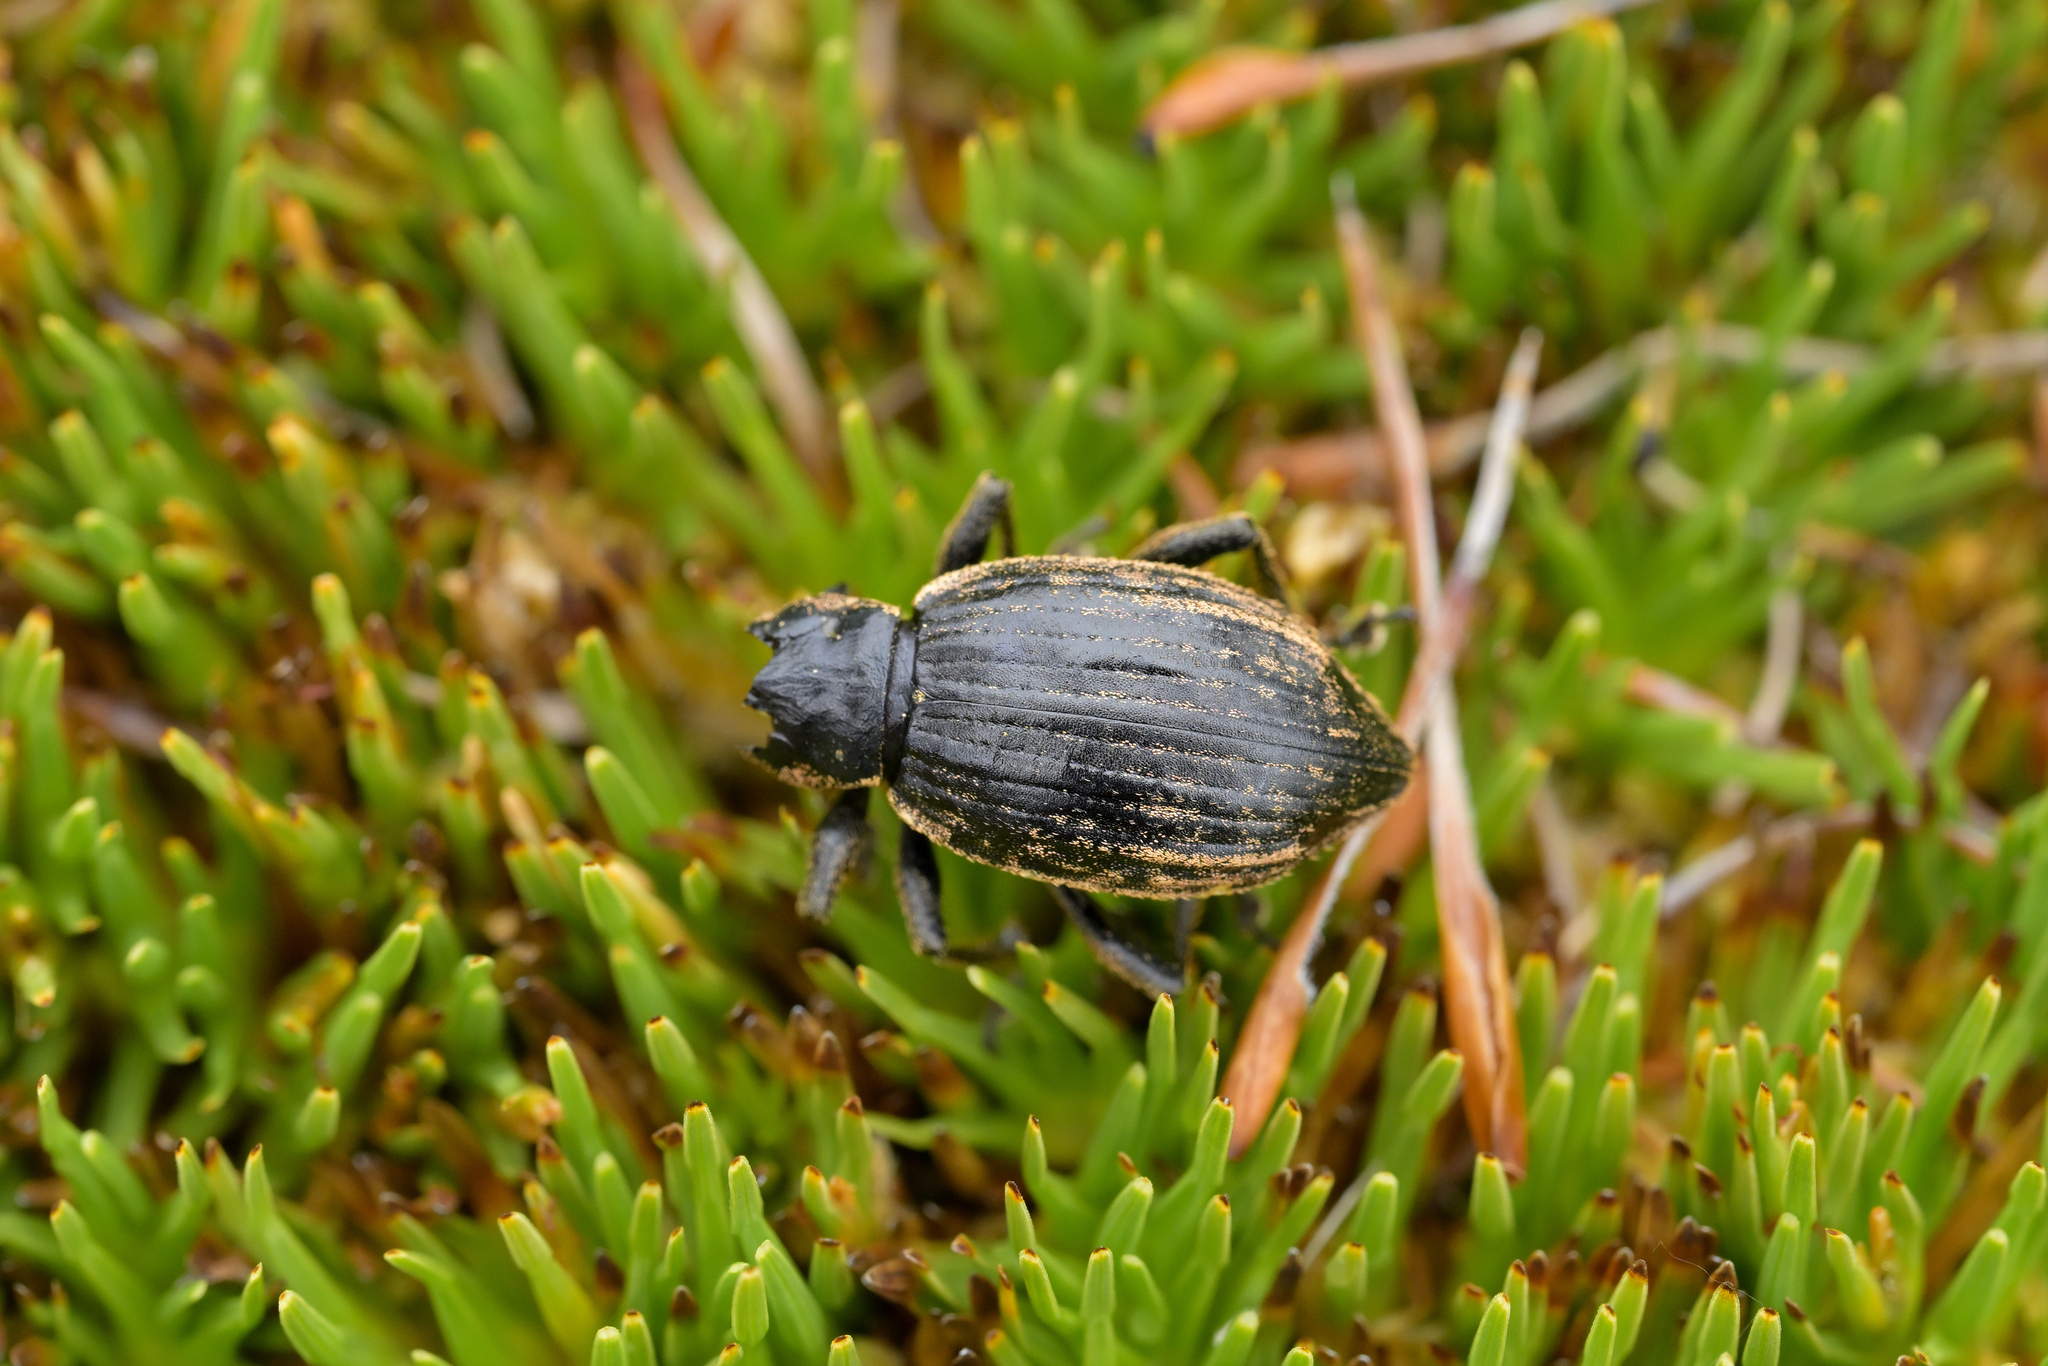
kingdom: Animalia
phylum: Arthropoda
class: Insecta
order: Coleoptera
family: Curculionidae
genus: Oclandius
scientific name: Oclandius cinereus
